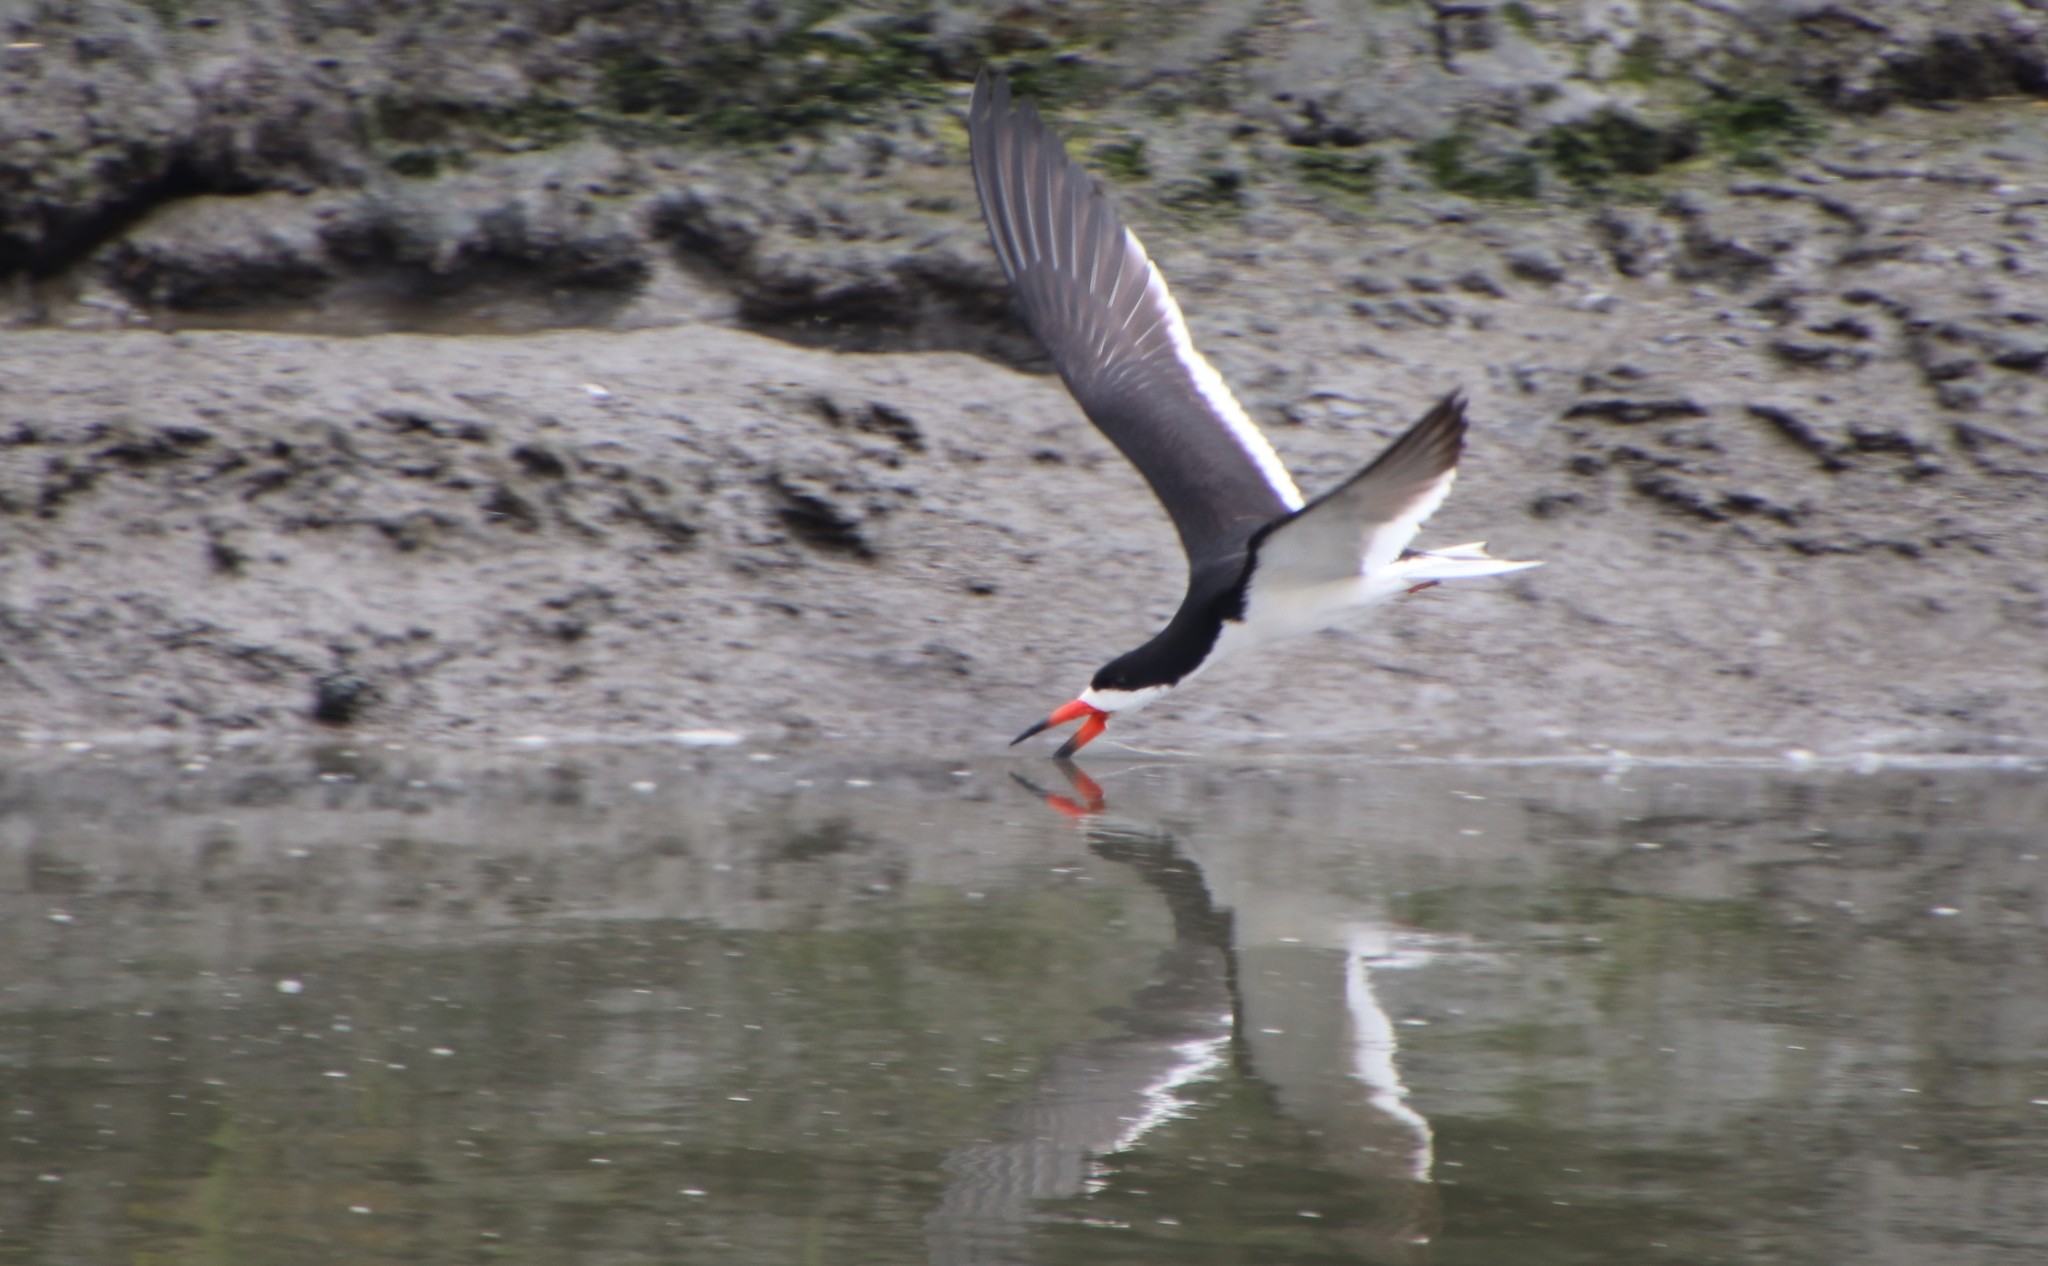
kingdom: Animalia
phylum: Chordata
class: Aves
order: Charadriiformes
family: Laridae
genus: Rynchops
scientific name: Rynchops niger
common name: Black skimmer
